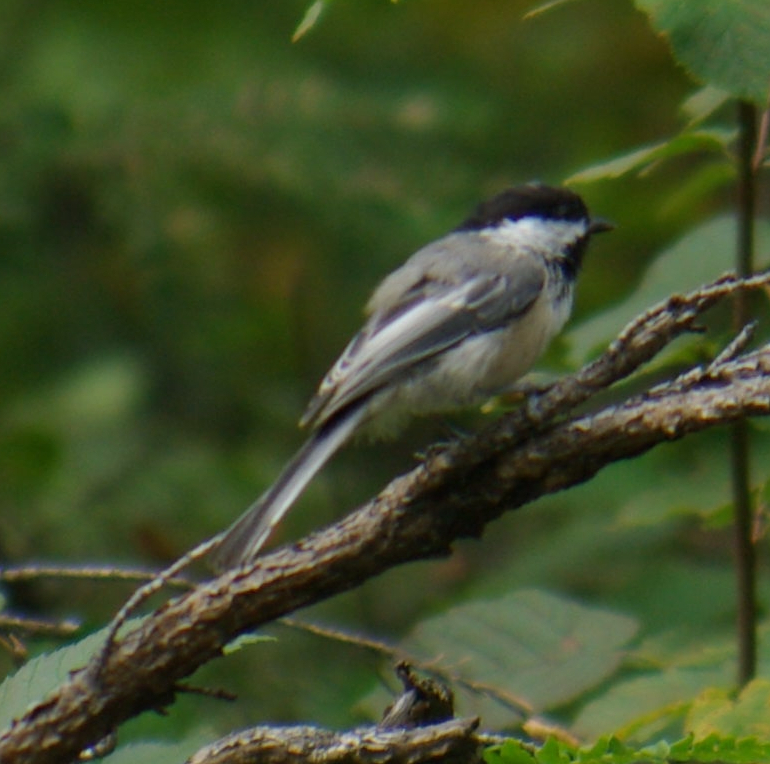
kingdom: Animalia
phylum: Chordata
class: Aves
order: Passeriformes
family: Paridae
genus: Poecile
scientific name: Poecile atricapillus
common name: Black-capped chickadee
